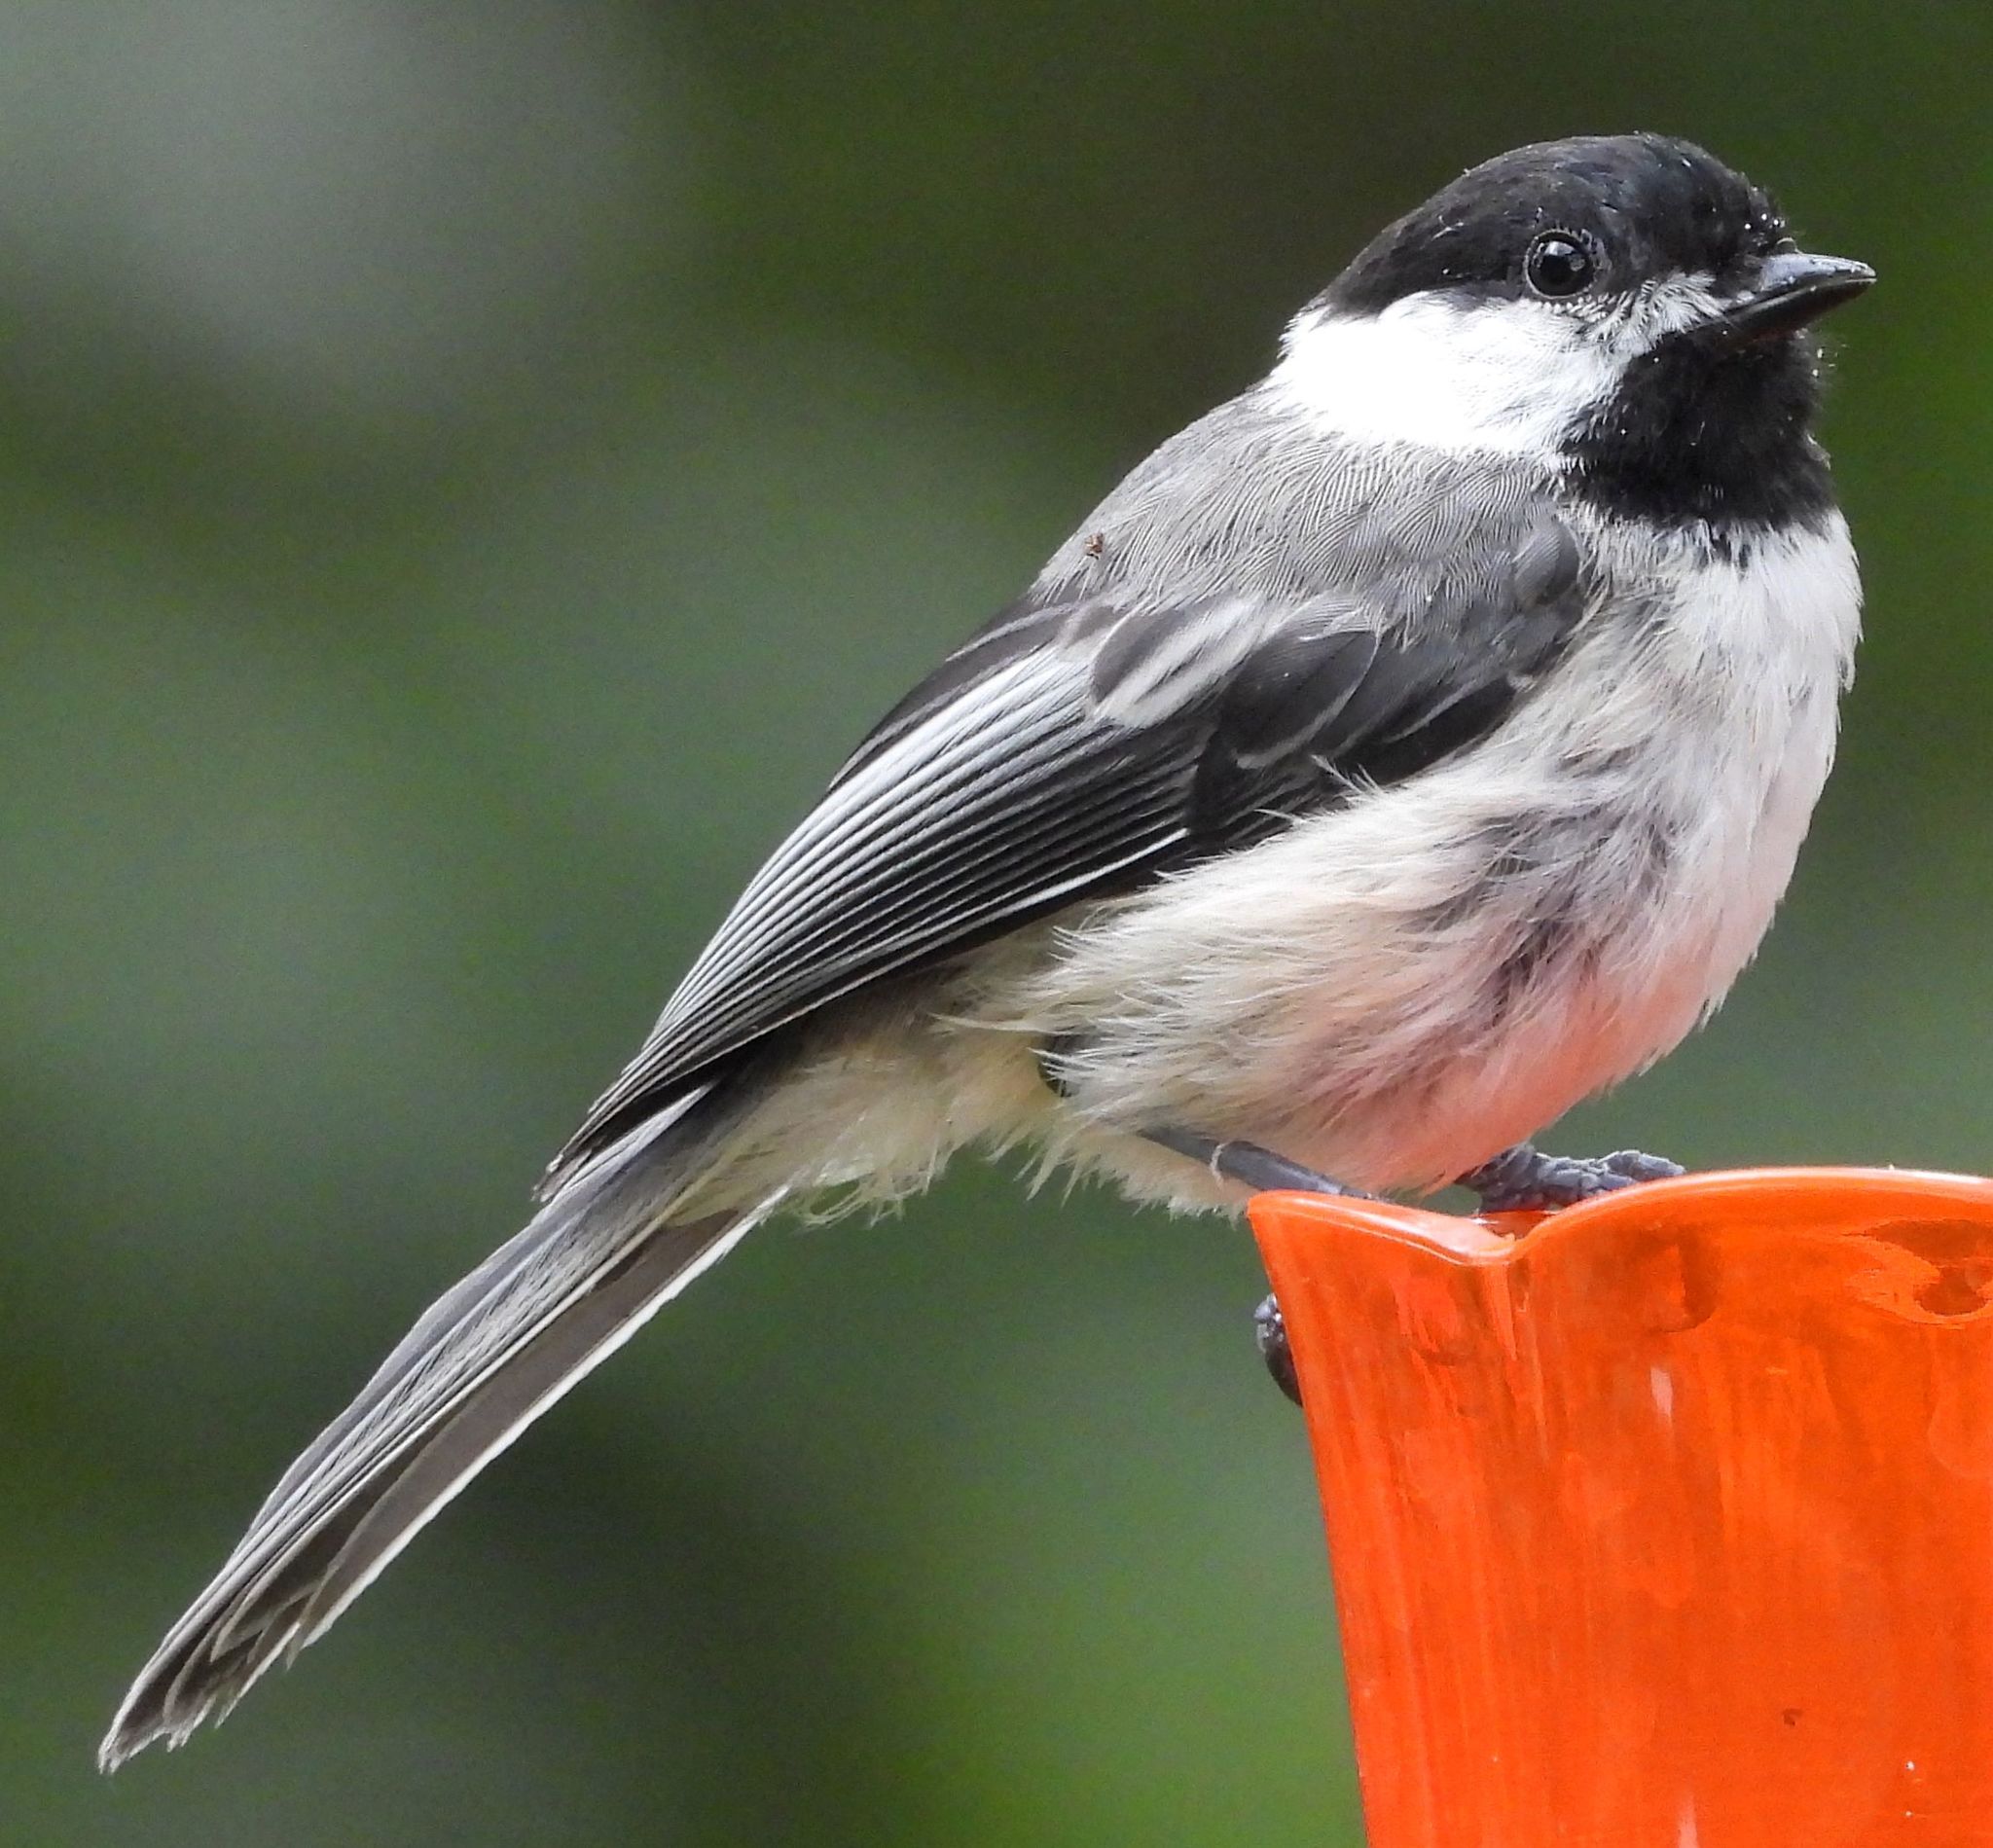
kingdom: Animalia
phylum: Chordata
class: Aves
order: Passeriformes
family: Paridae
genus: Poecile
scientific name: Poecile atricapillus
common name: Black-capped chickadee
